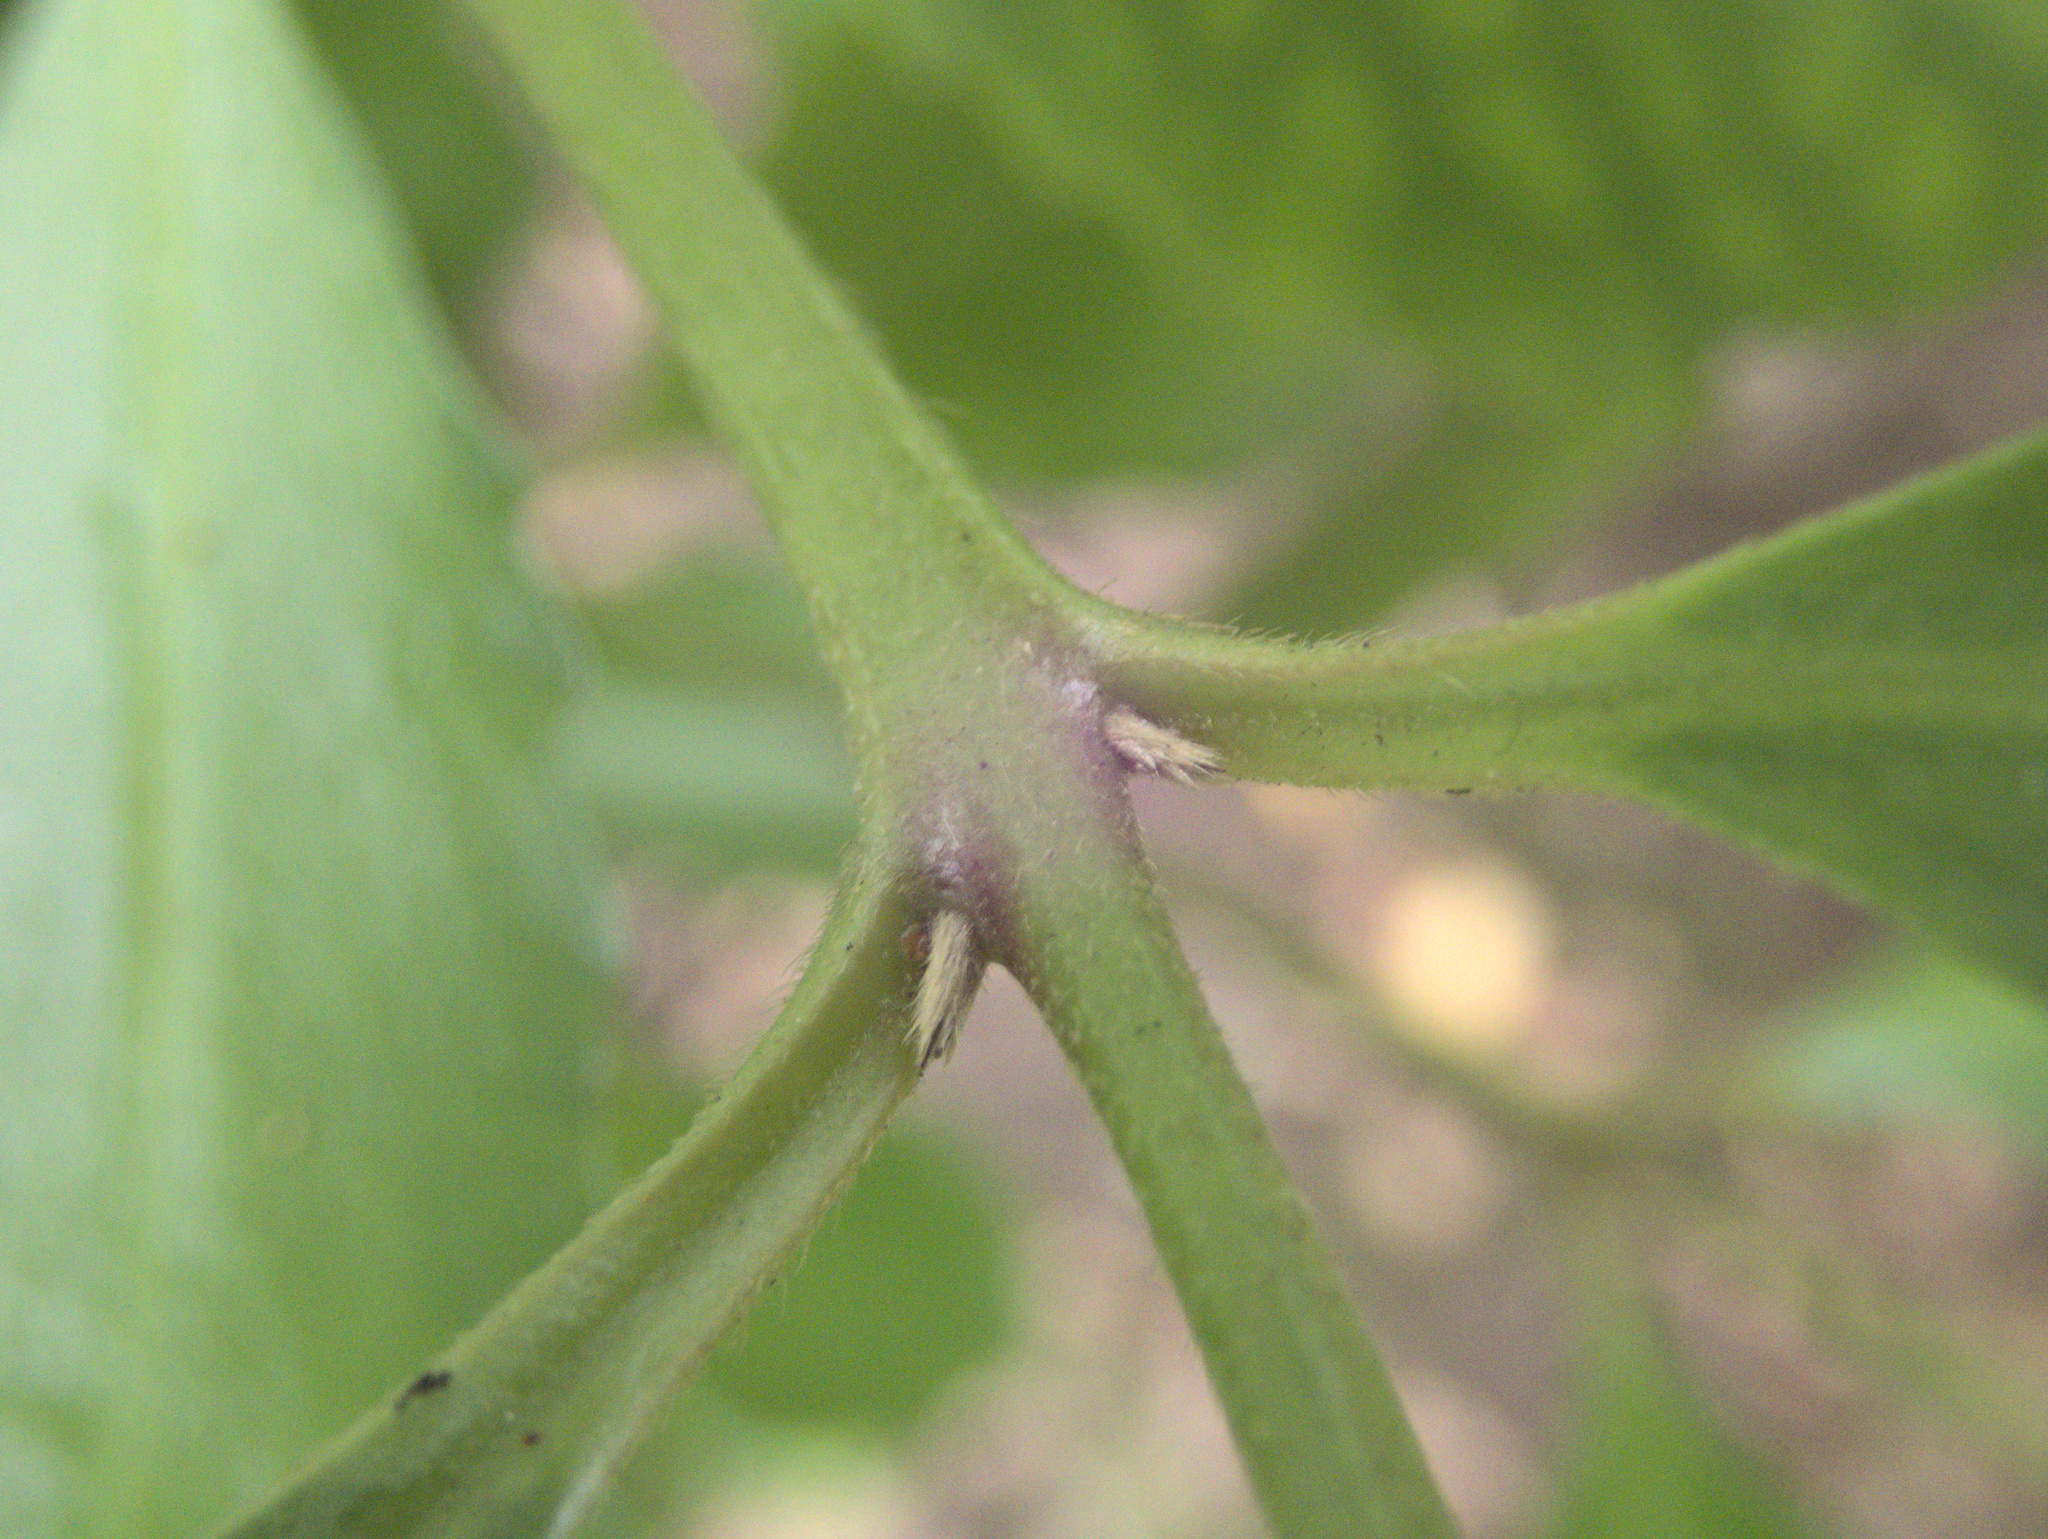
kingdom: Plantae
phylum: Tracheophyta
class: Magnoliopsida
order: Laurales
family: Atherospermataceae
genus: Laurelia
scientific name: Laurelia novae-zelandiae
